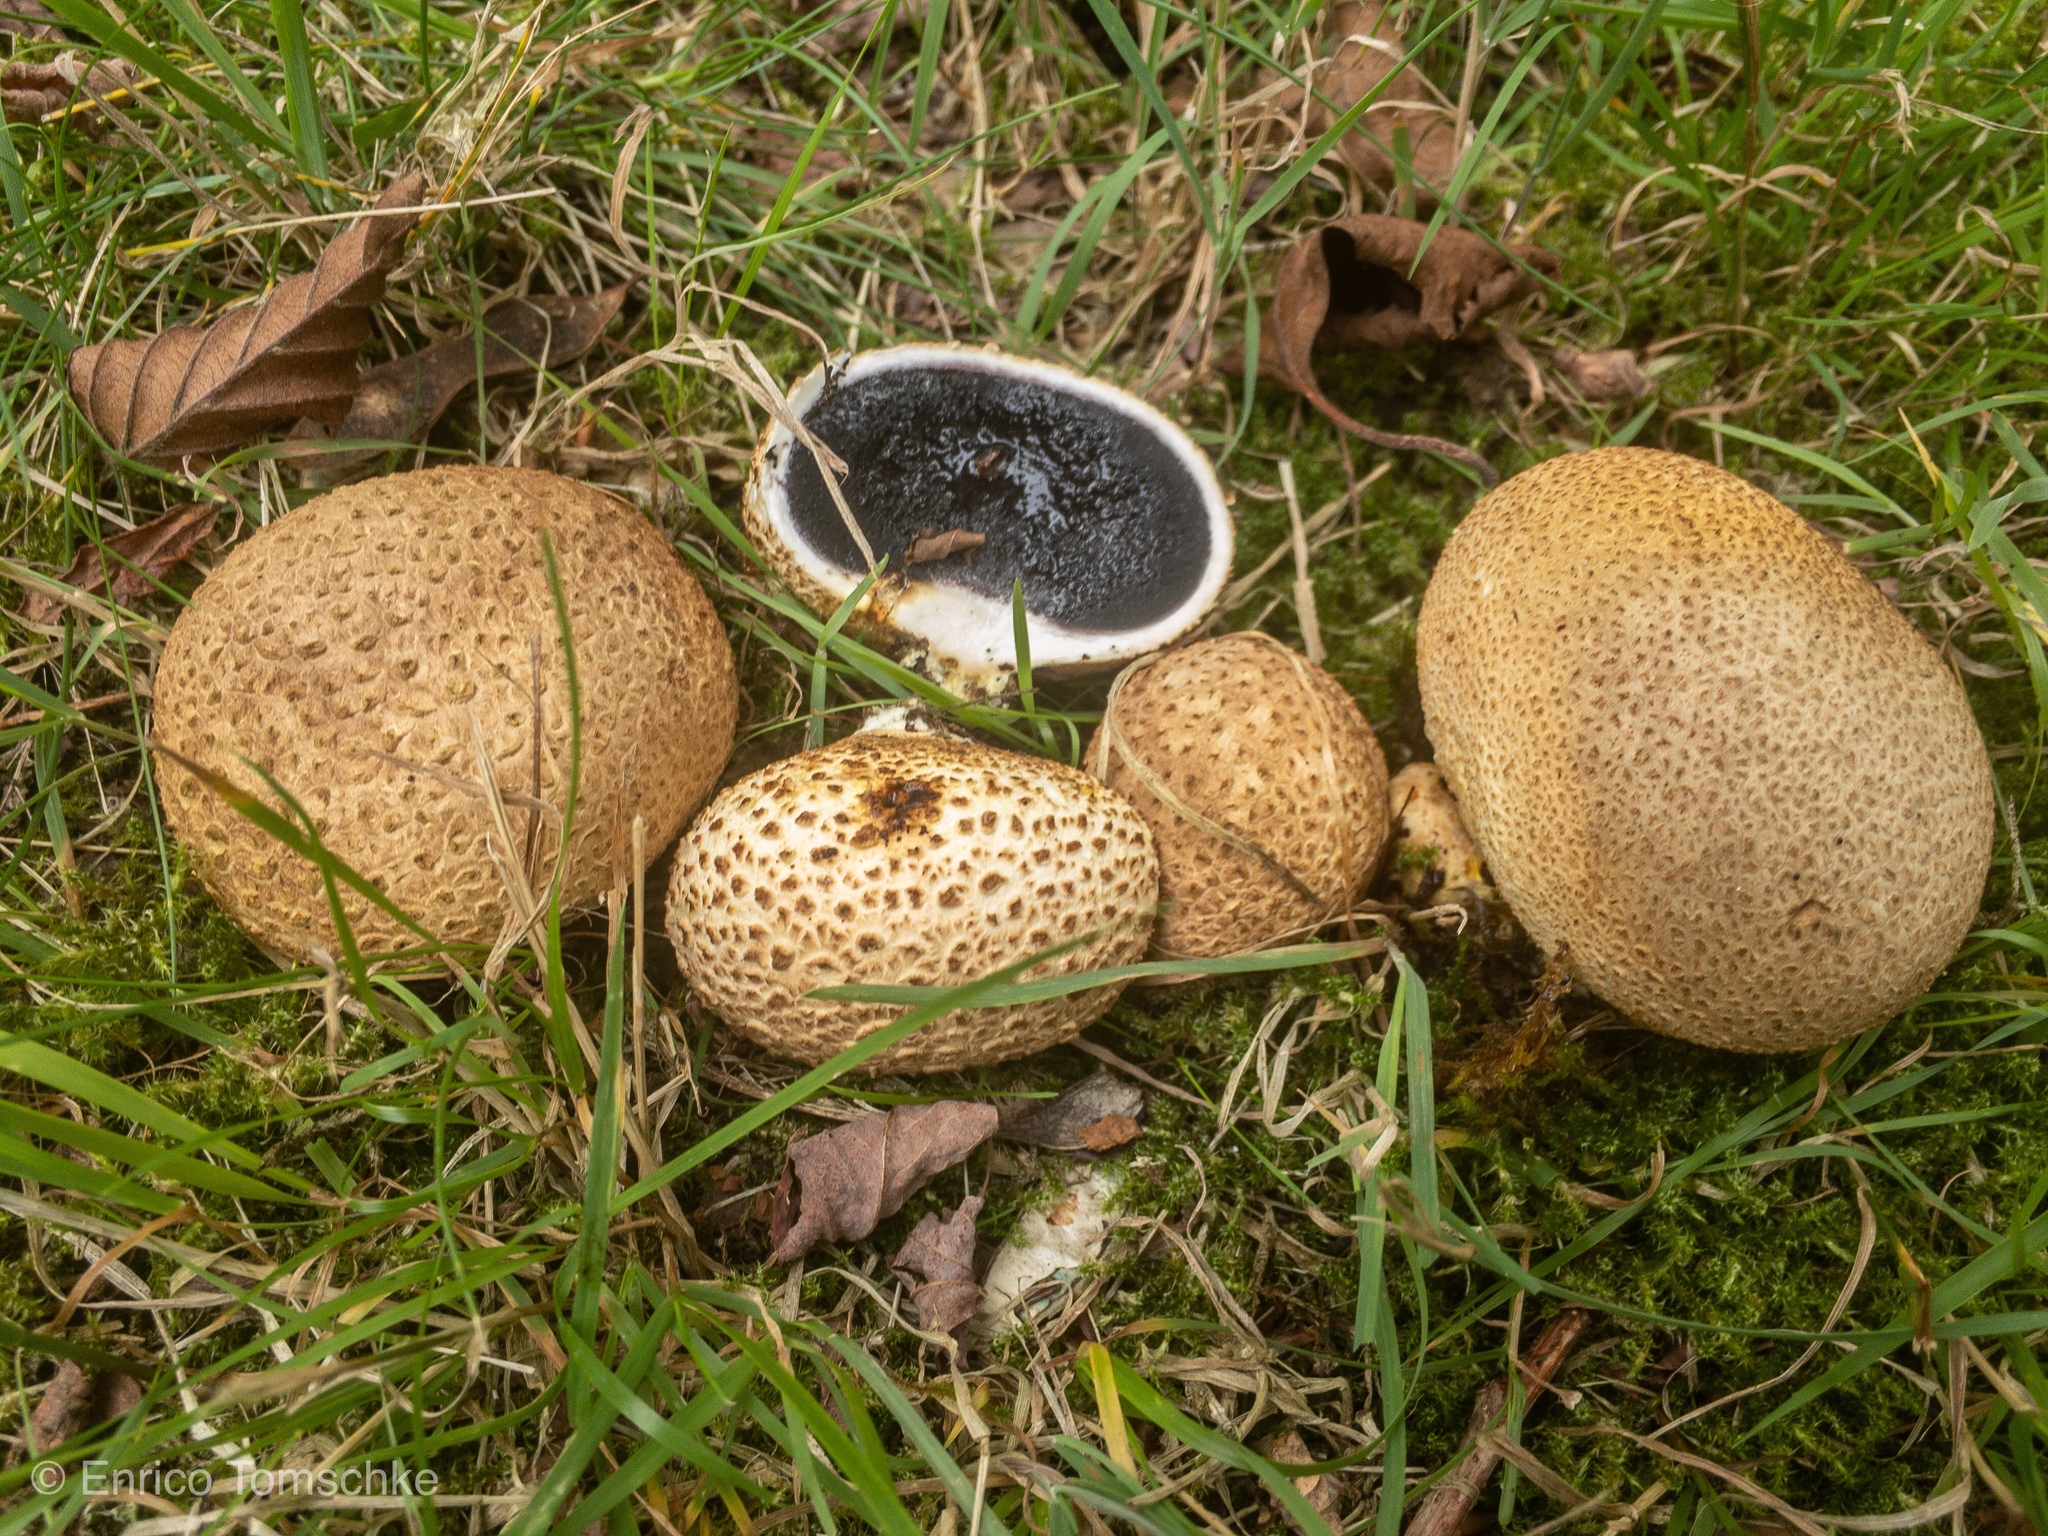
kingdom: Fungi
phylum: Basidiomycota
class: Agaricomycetes
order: Boletales
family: Sclerodermataceae
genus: Scleroderma
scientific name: Scleroderma citrinum
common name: Common earthball
